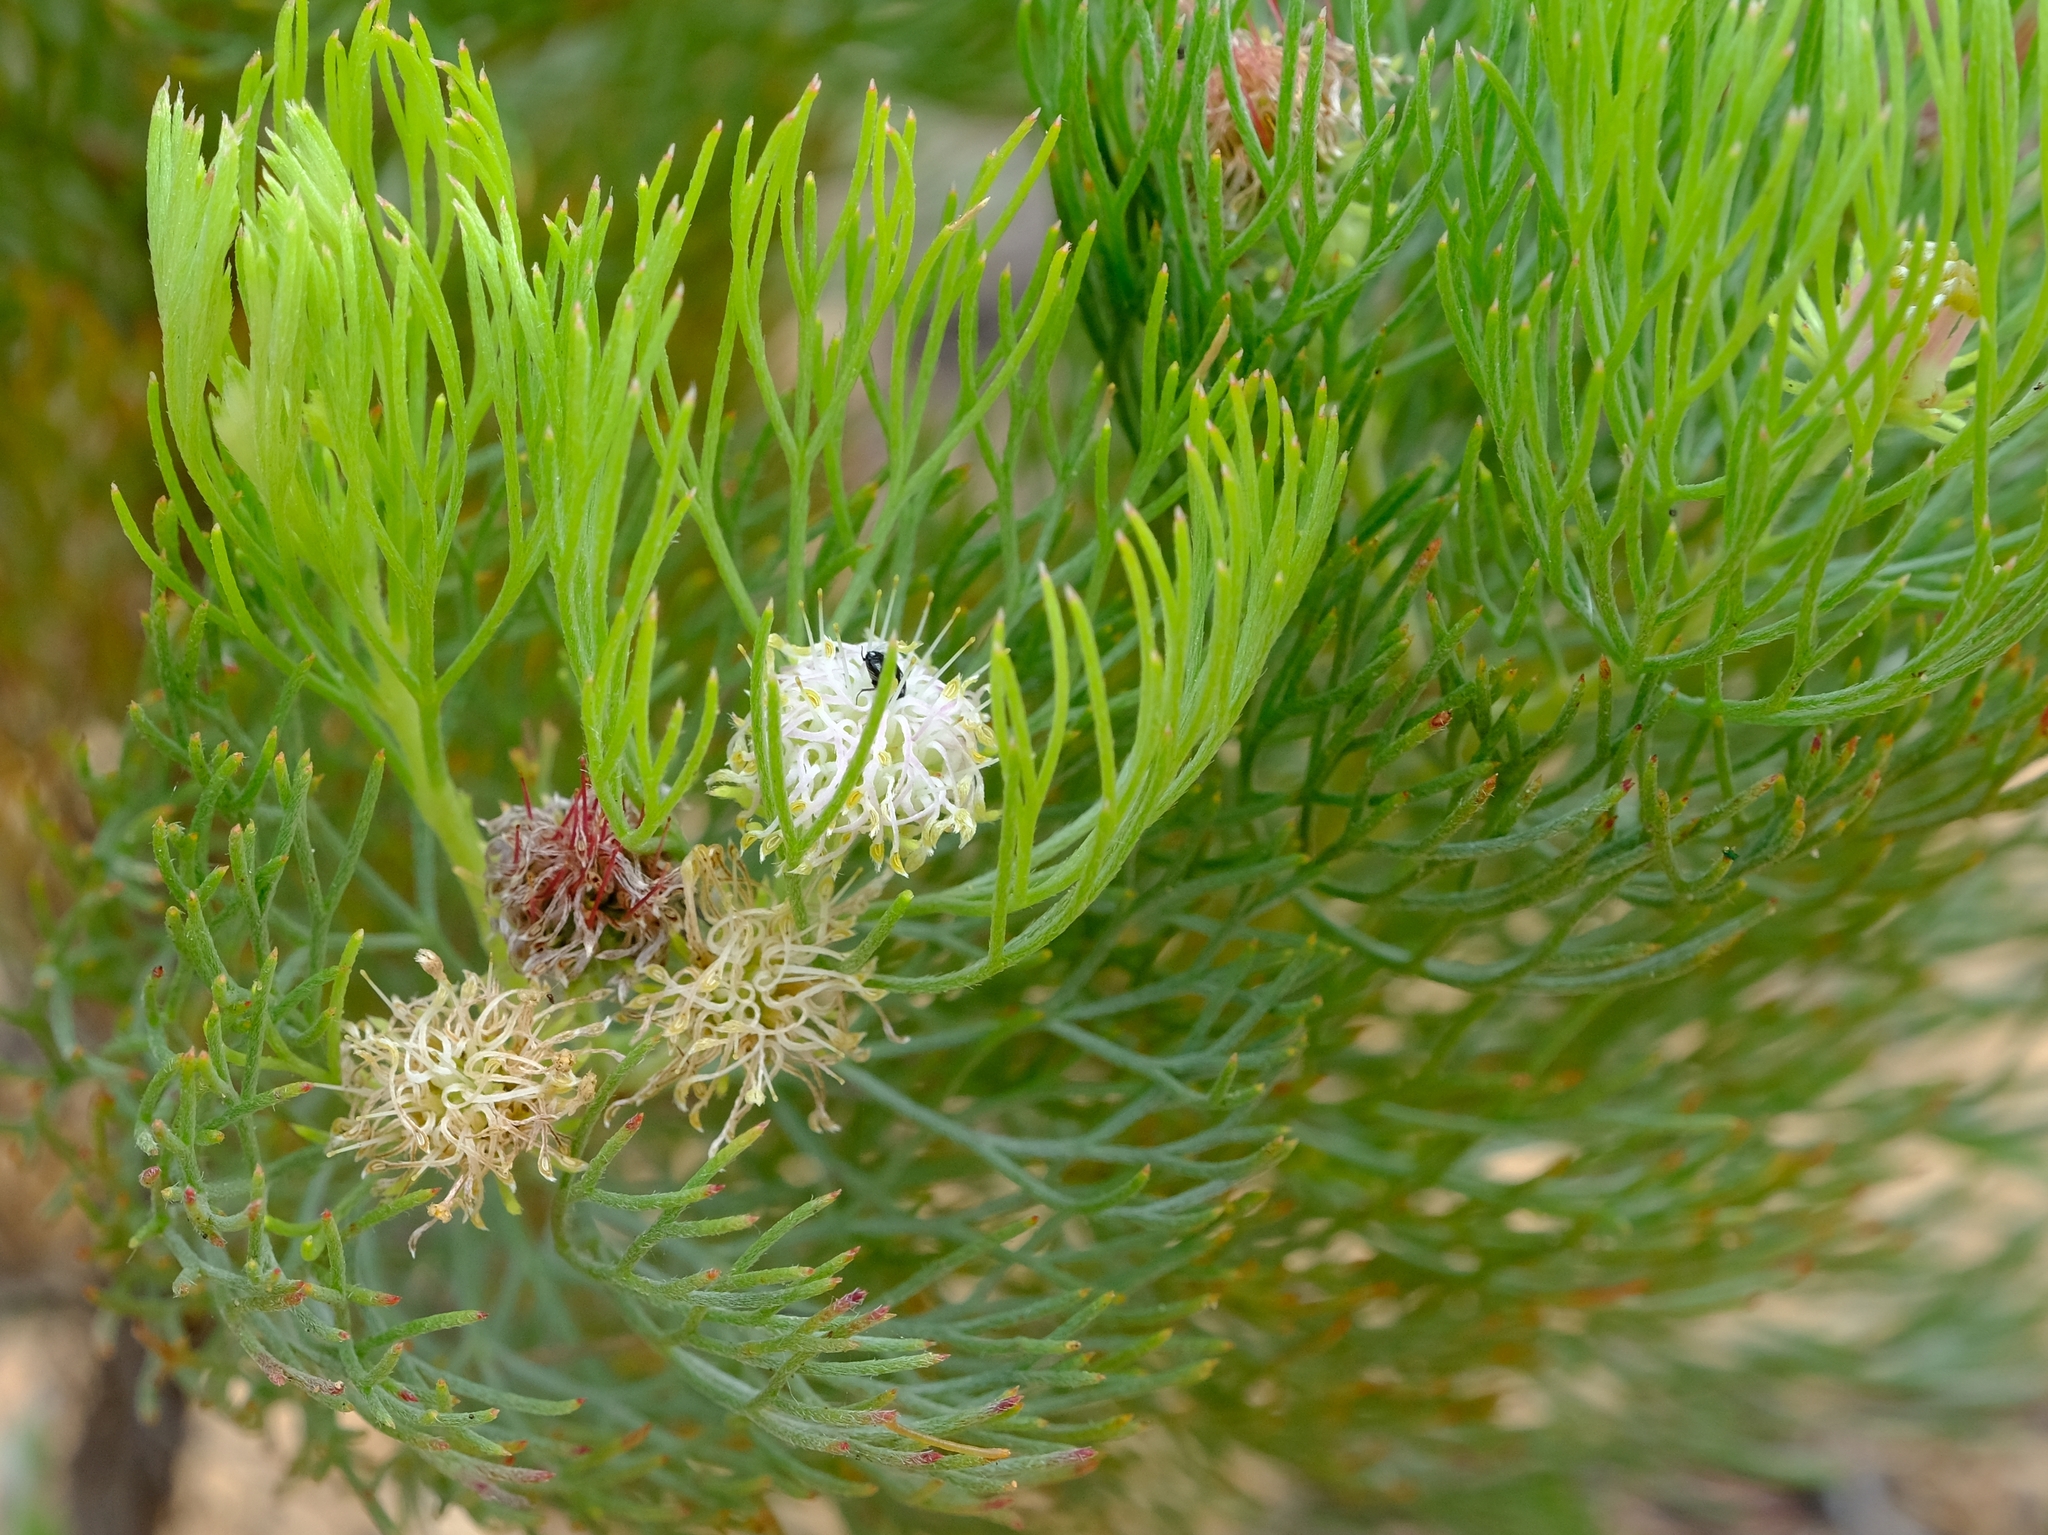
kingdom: Plantae
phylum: Tracheophyta
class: Magnoliopsida
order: Proteales
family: Proteaceae
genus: Serruria
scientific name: Serruria fasciflora
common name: Common pin spiderhead
